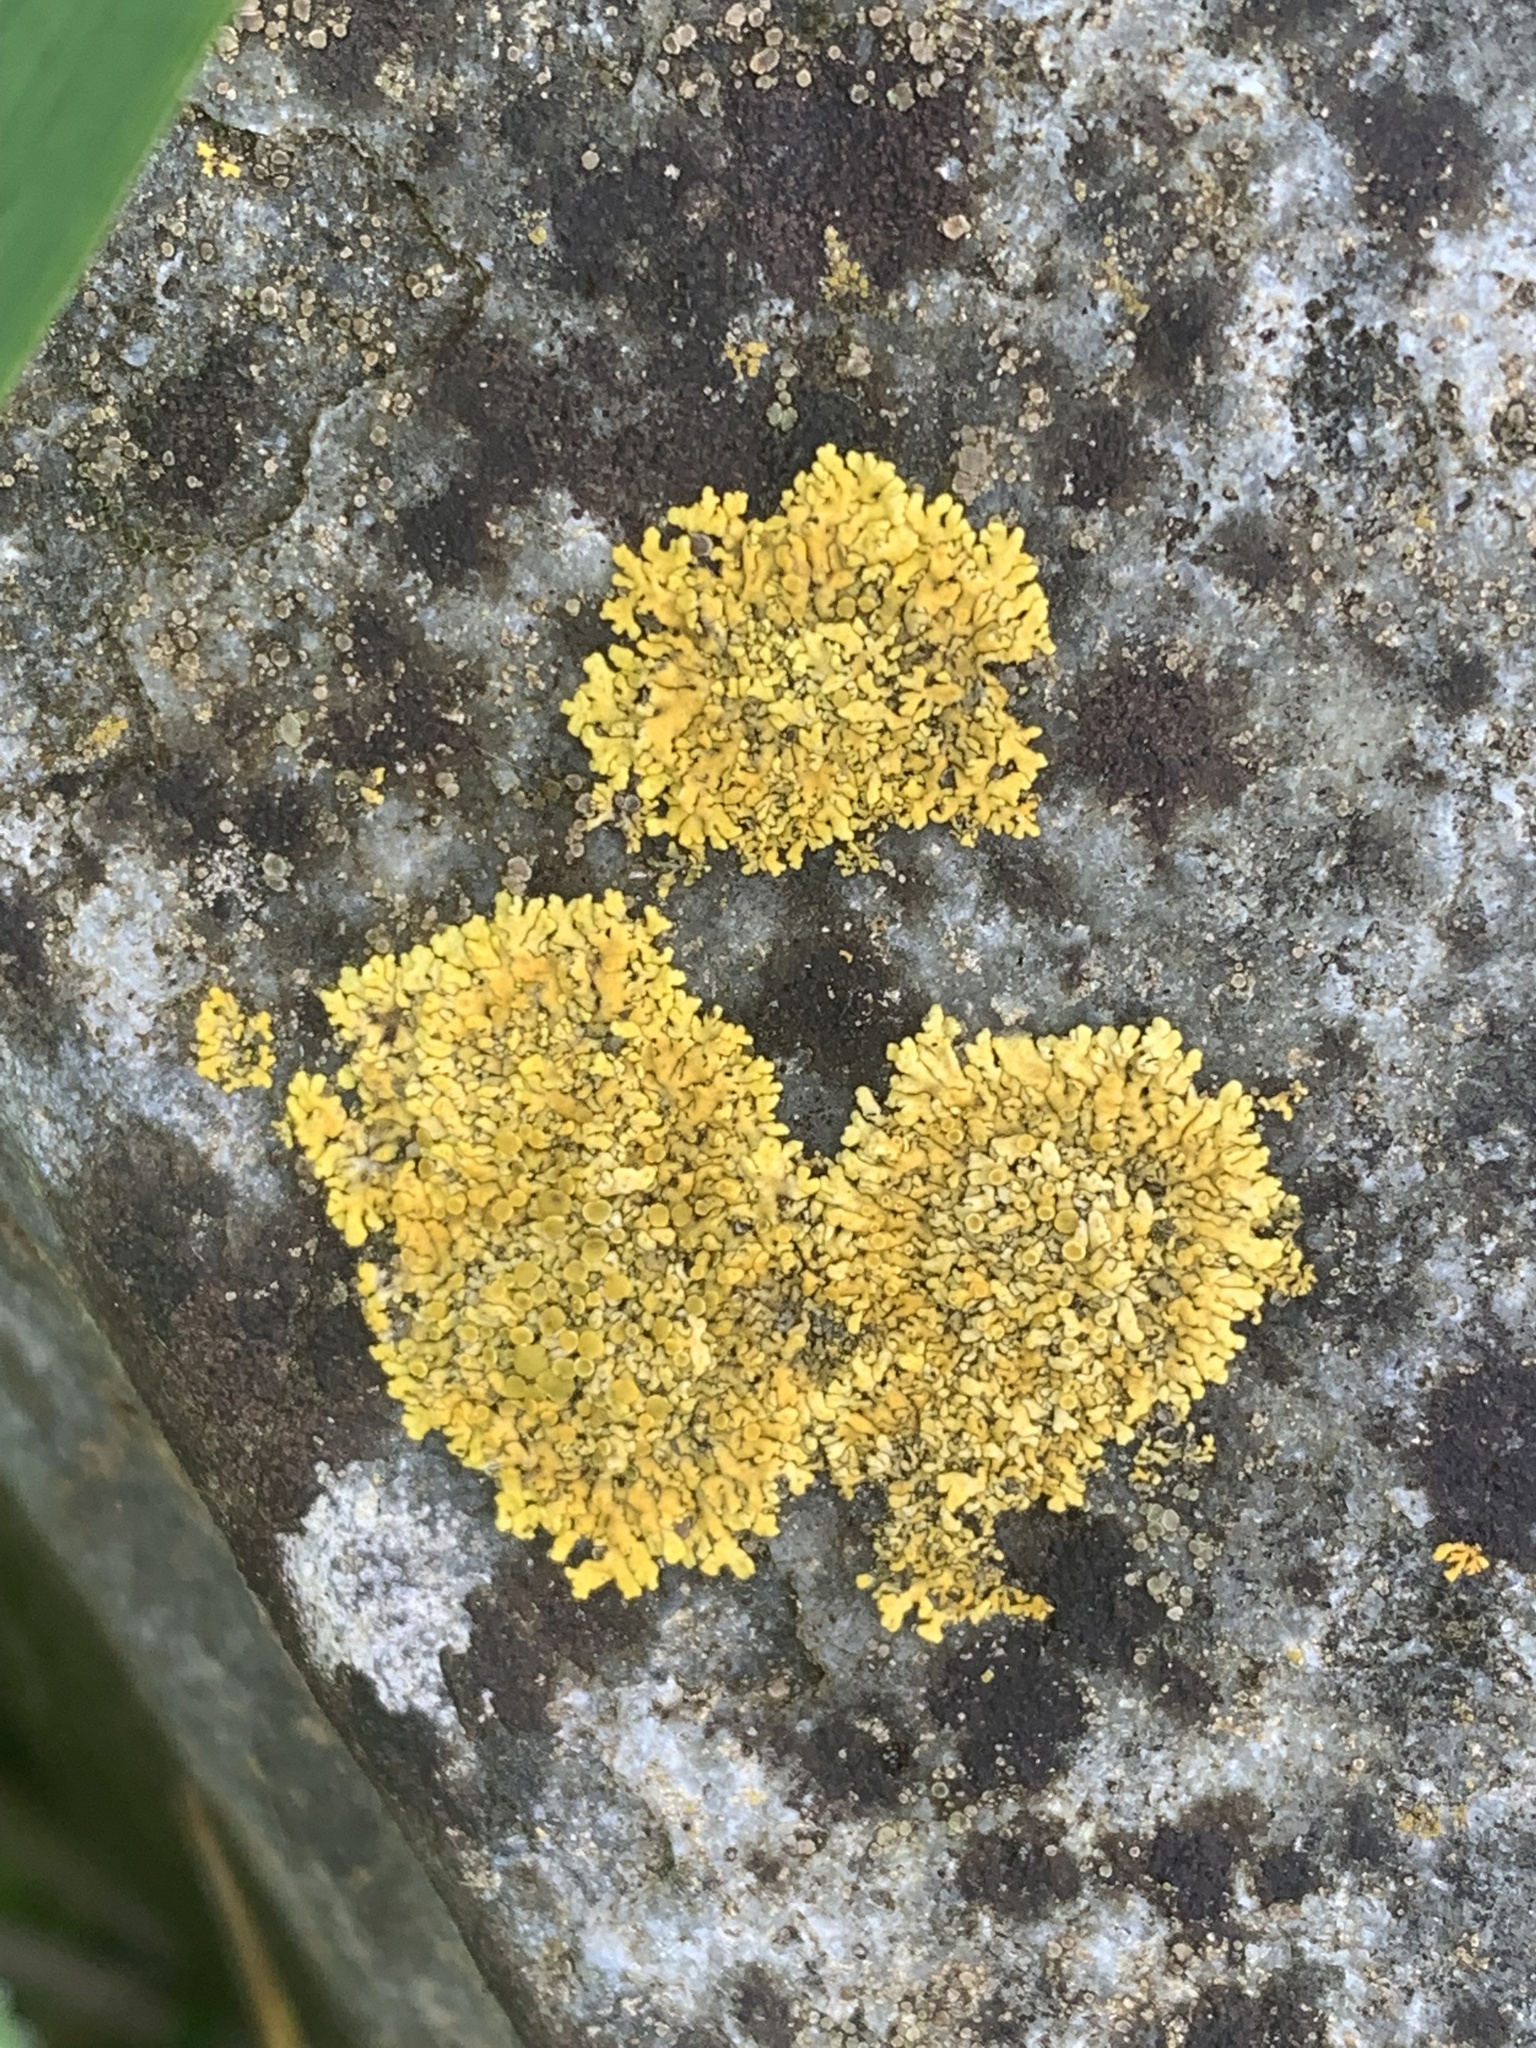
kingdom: Fungi
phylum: Ascomycota
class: Lecanoromycetes
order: Teloschistales
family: Teloschistaceae
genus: Xanthoria
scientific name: Xanthoria parietina
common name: Common orange lichen
